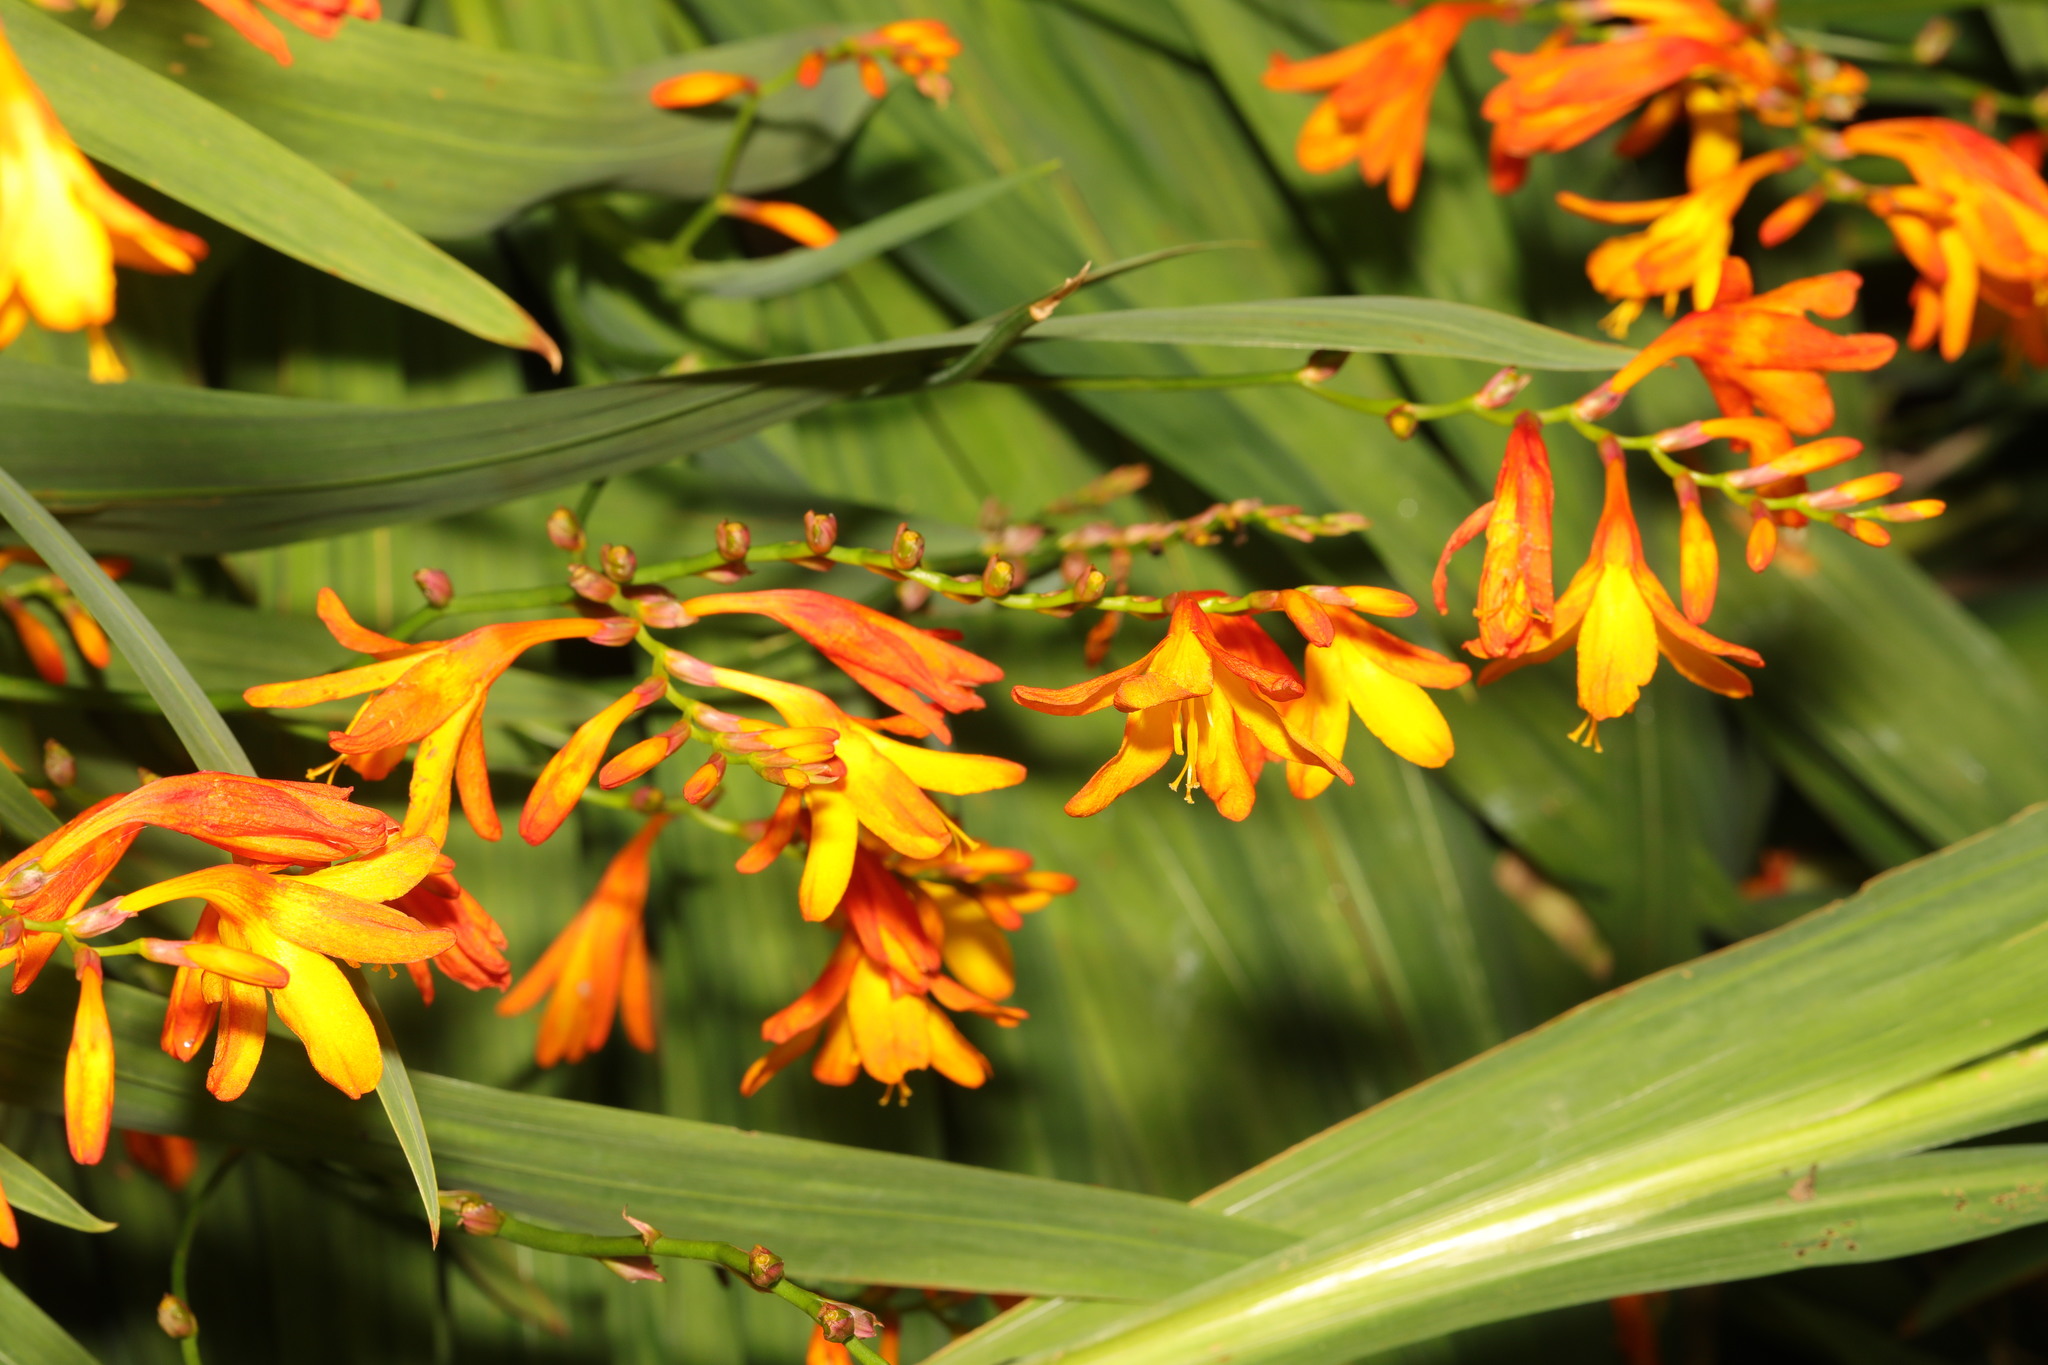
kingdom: Plantae
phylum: Tracheophyta
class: Liliopsida
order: Asparagales
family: Iridaceae
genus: Crocosmia
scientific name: Crocosmia crocosmiiflora
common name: Montbretia
